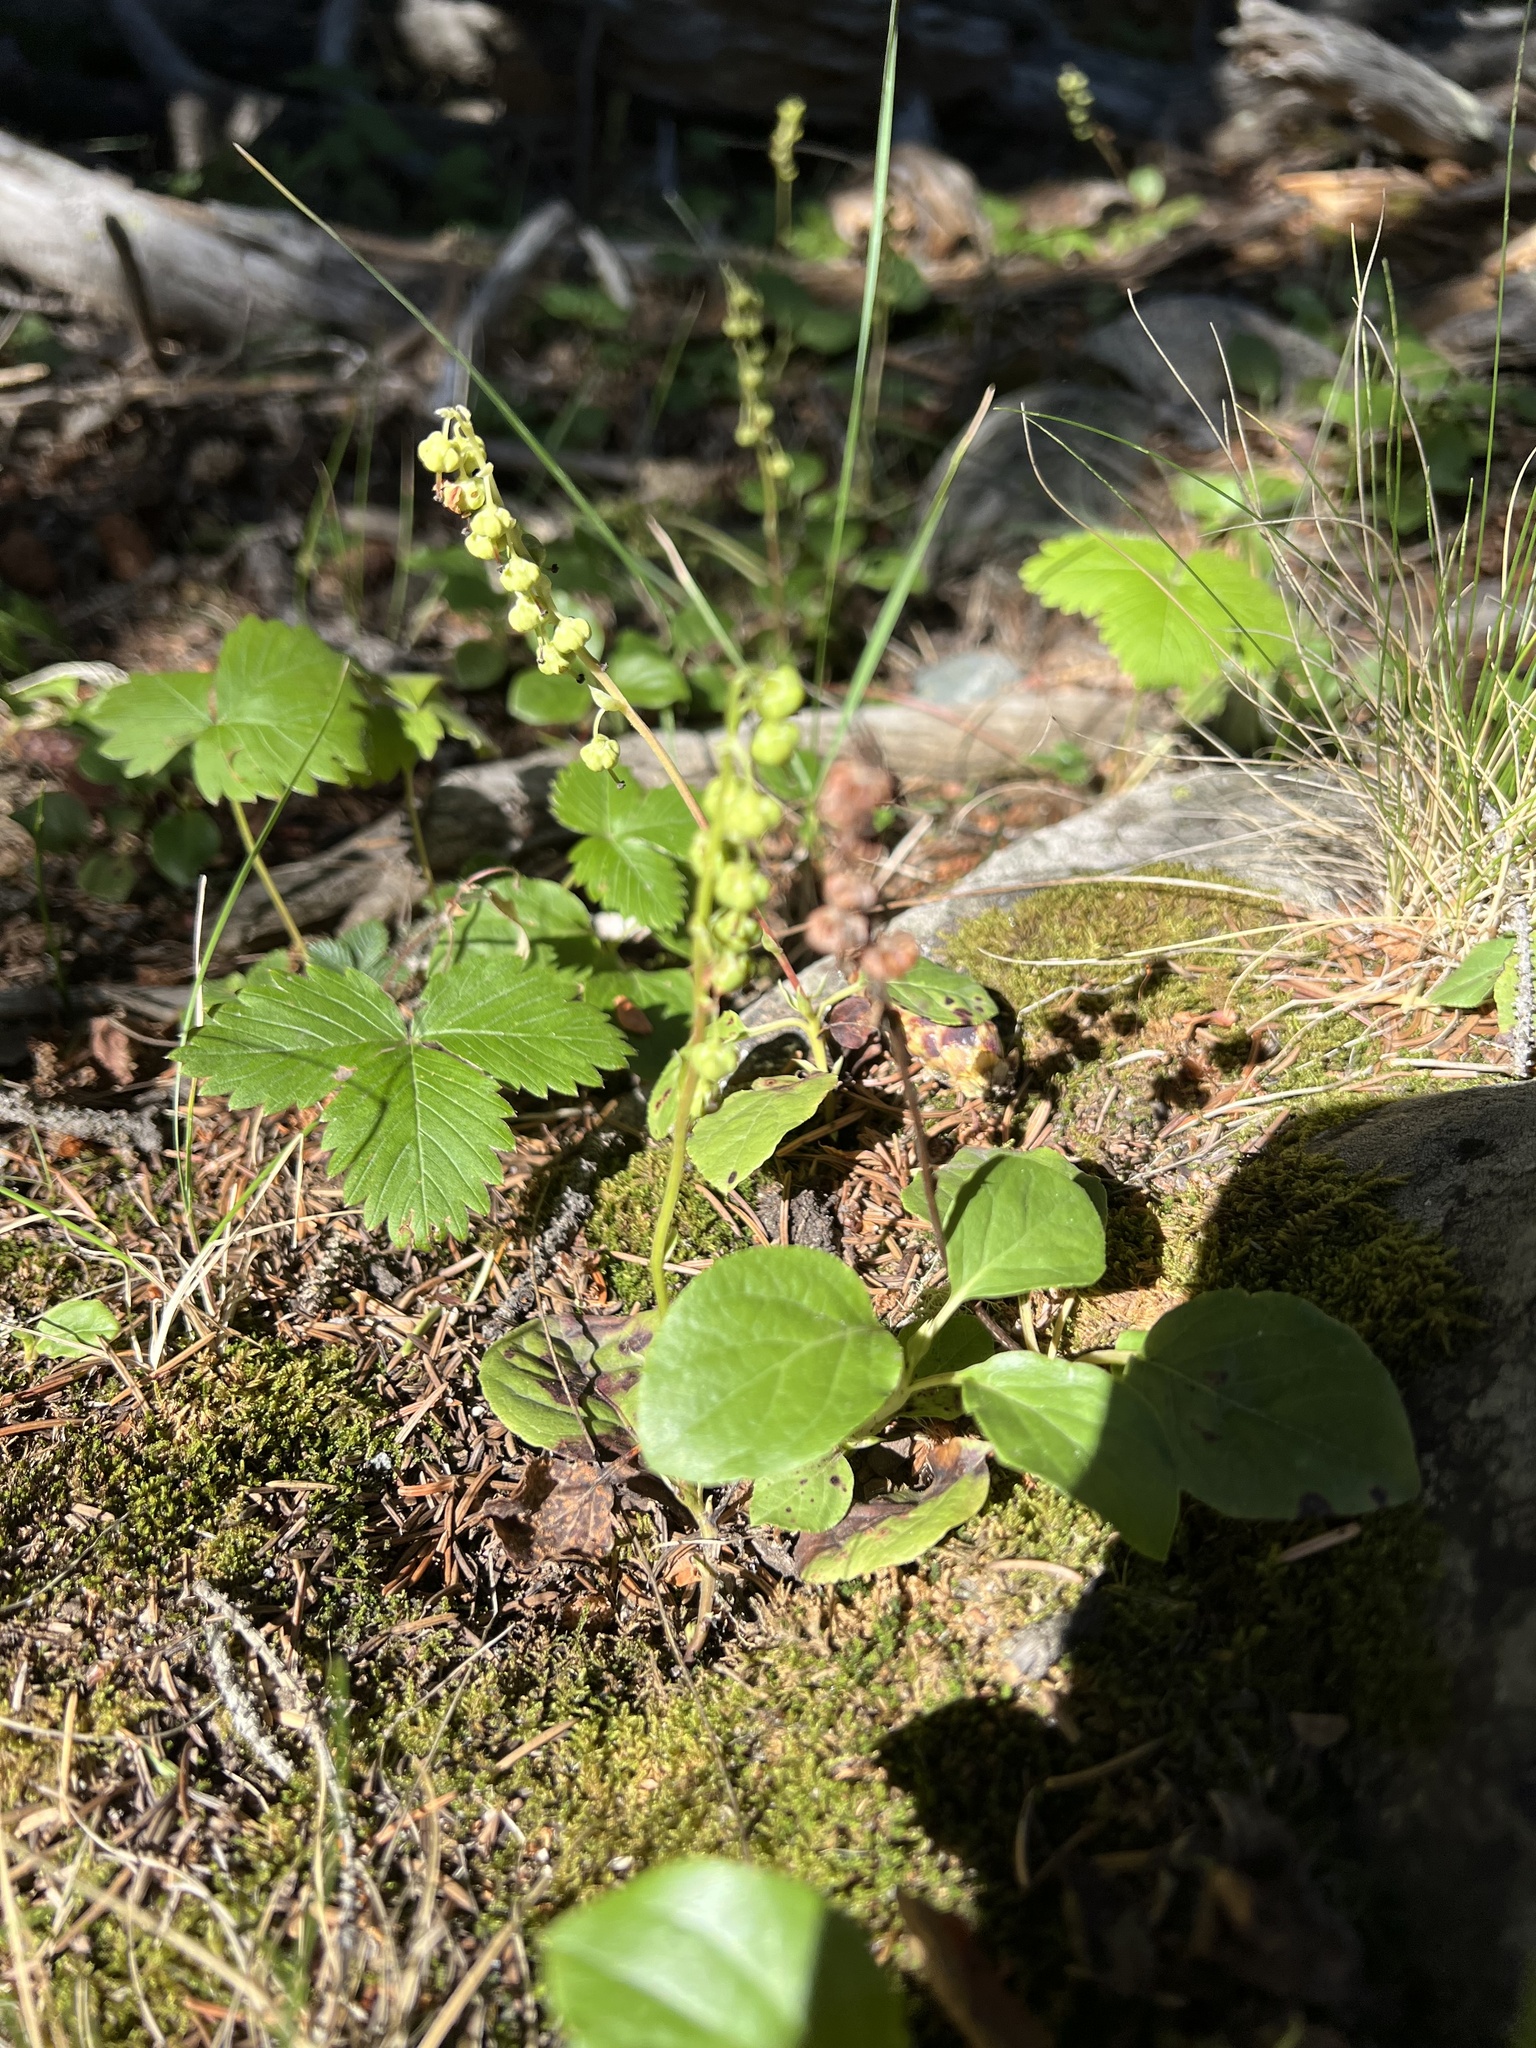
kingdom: Plantae
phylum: Tracheophyta
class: Magnoliopsida
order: Ericales
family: Ericaceae
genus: Orthilia
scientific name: Orthilia secunda
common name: One-sided orthilia
